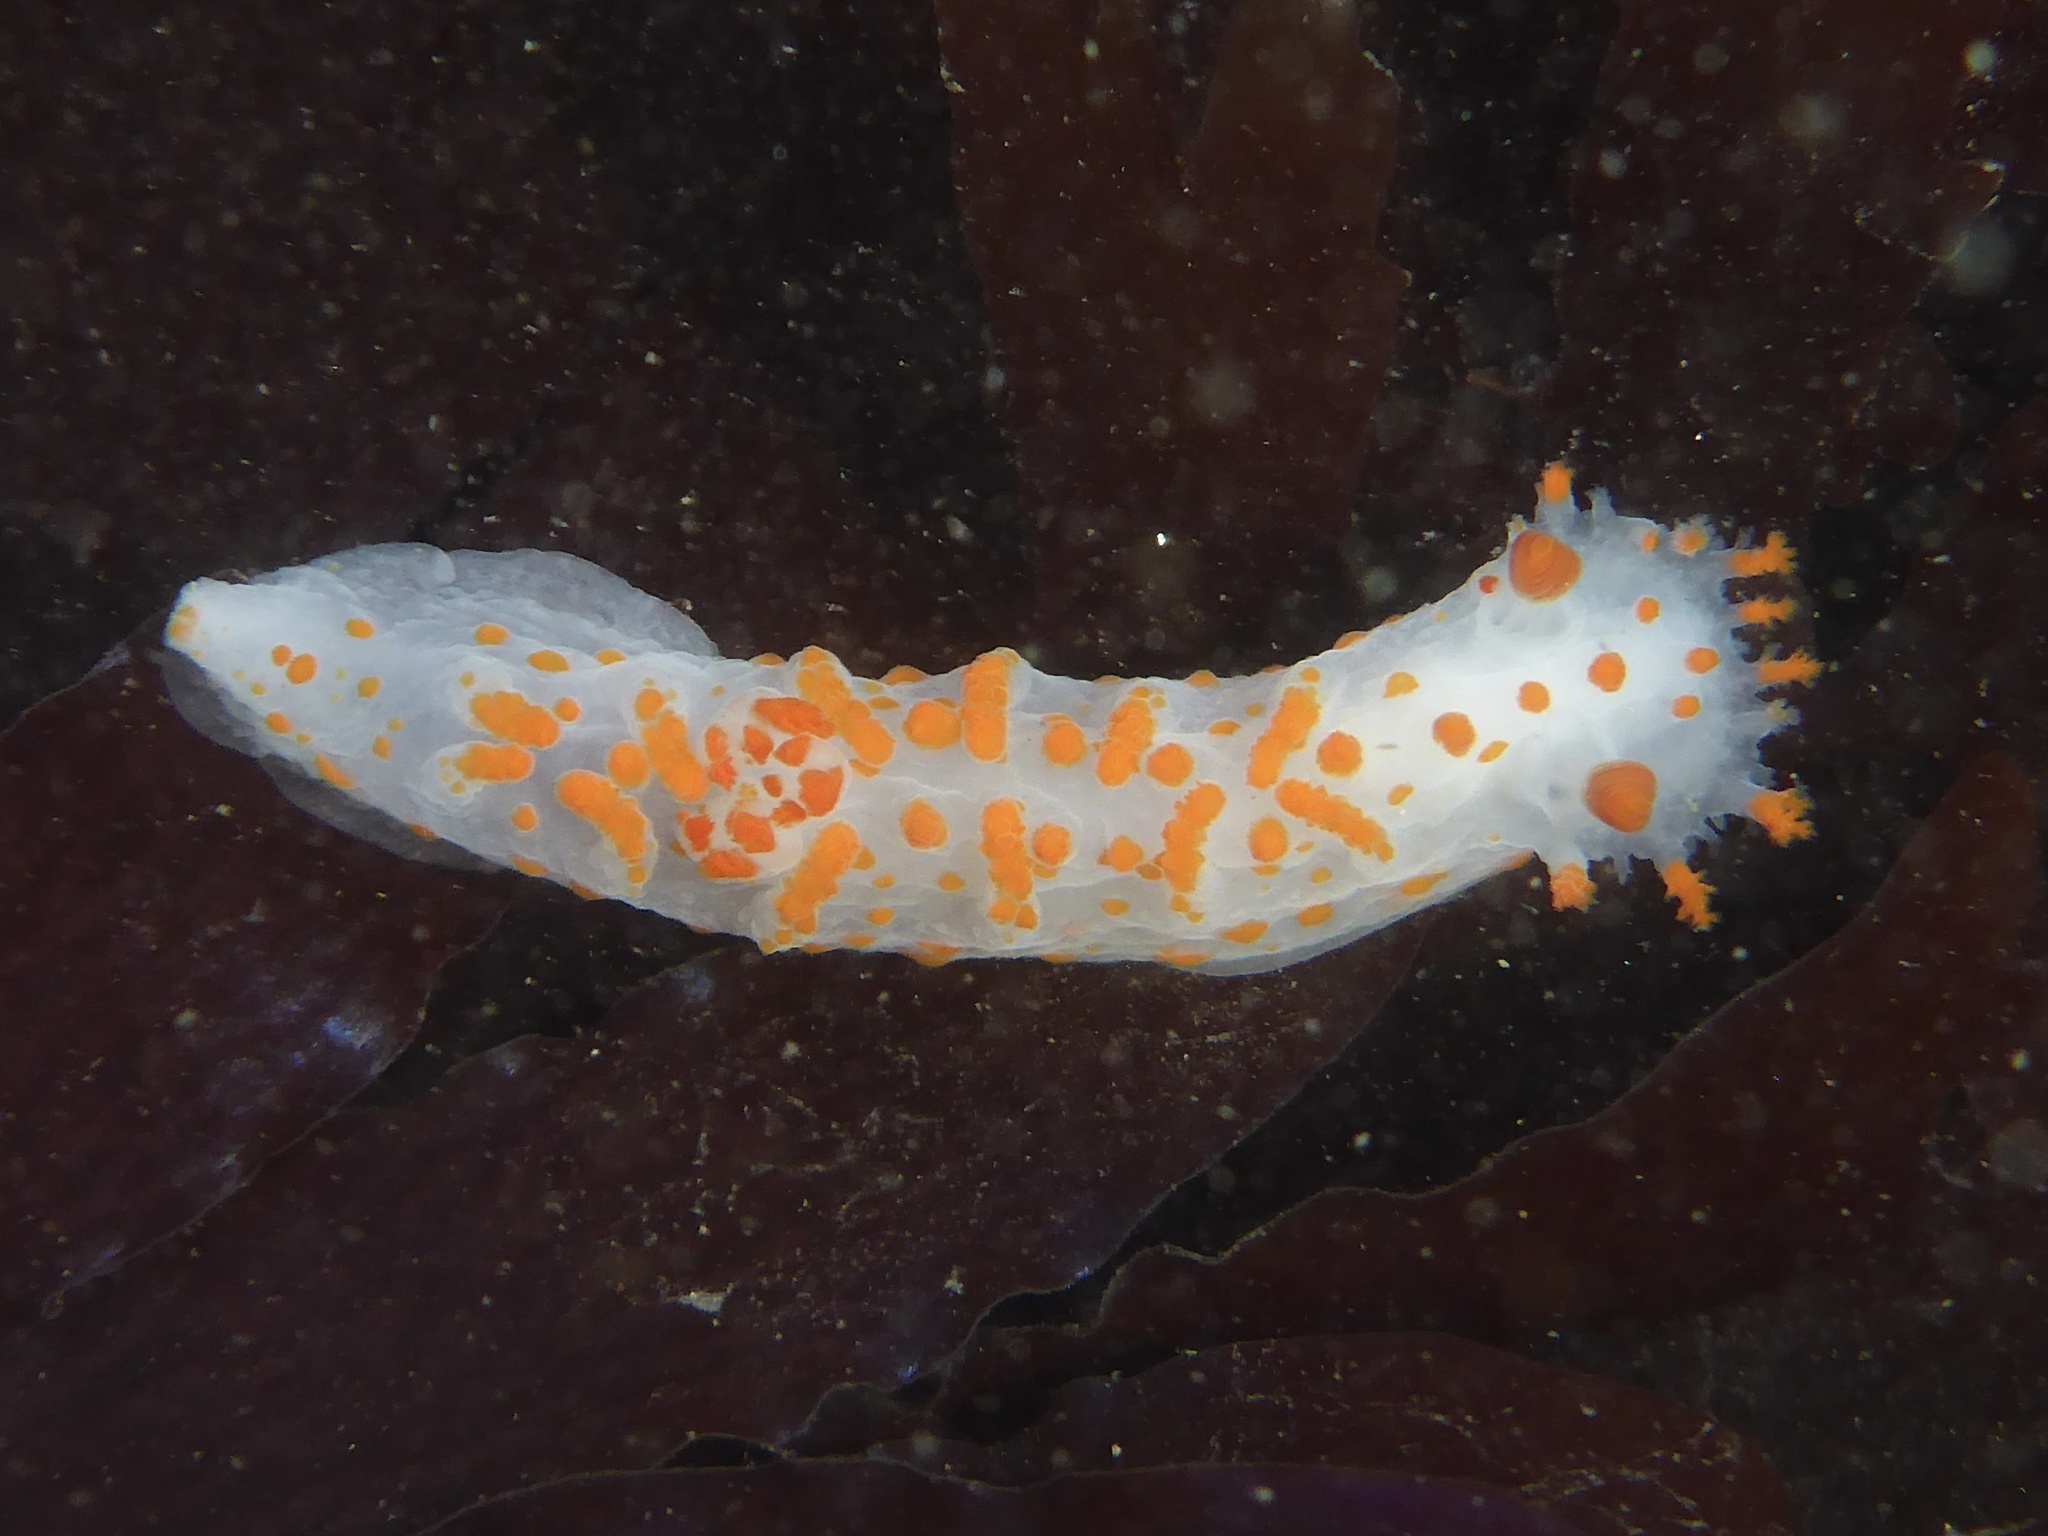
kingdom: Animalia
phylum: Mollusca
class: Gastropoda
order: Nudibranchia
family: Polyceridae
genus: Triopha
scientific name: Triopha catalinae
